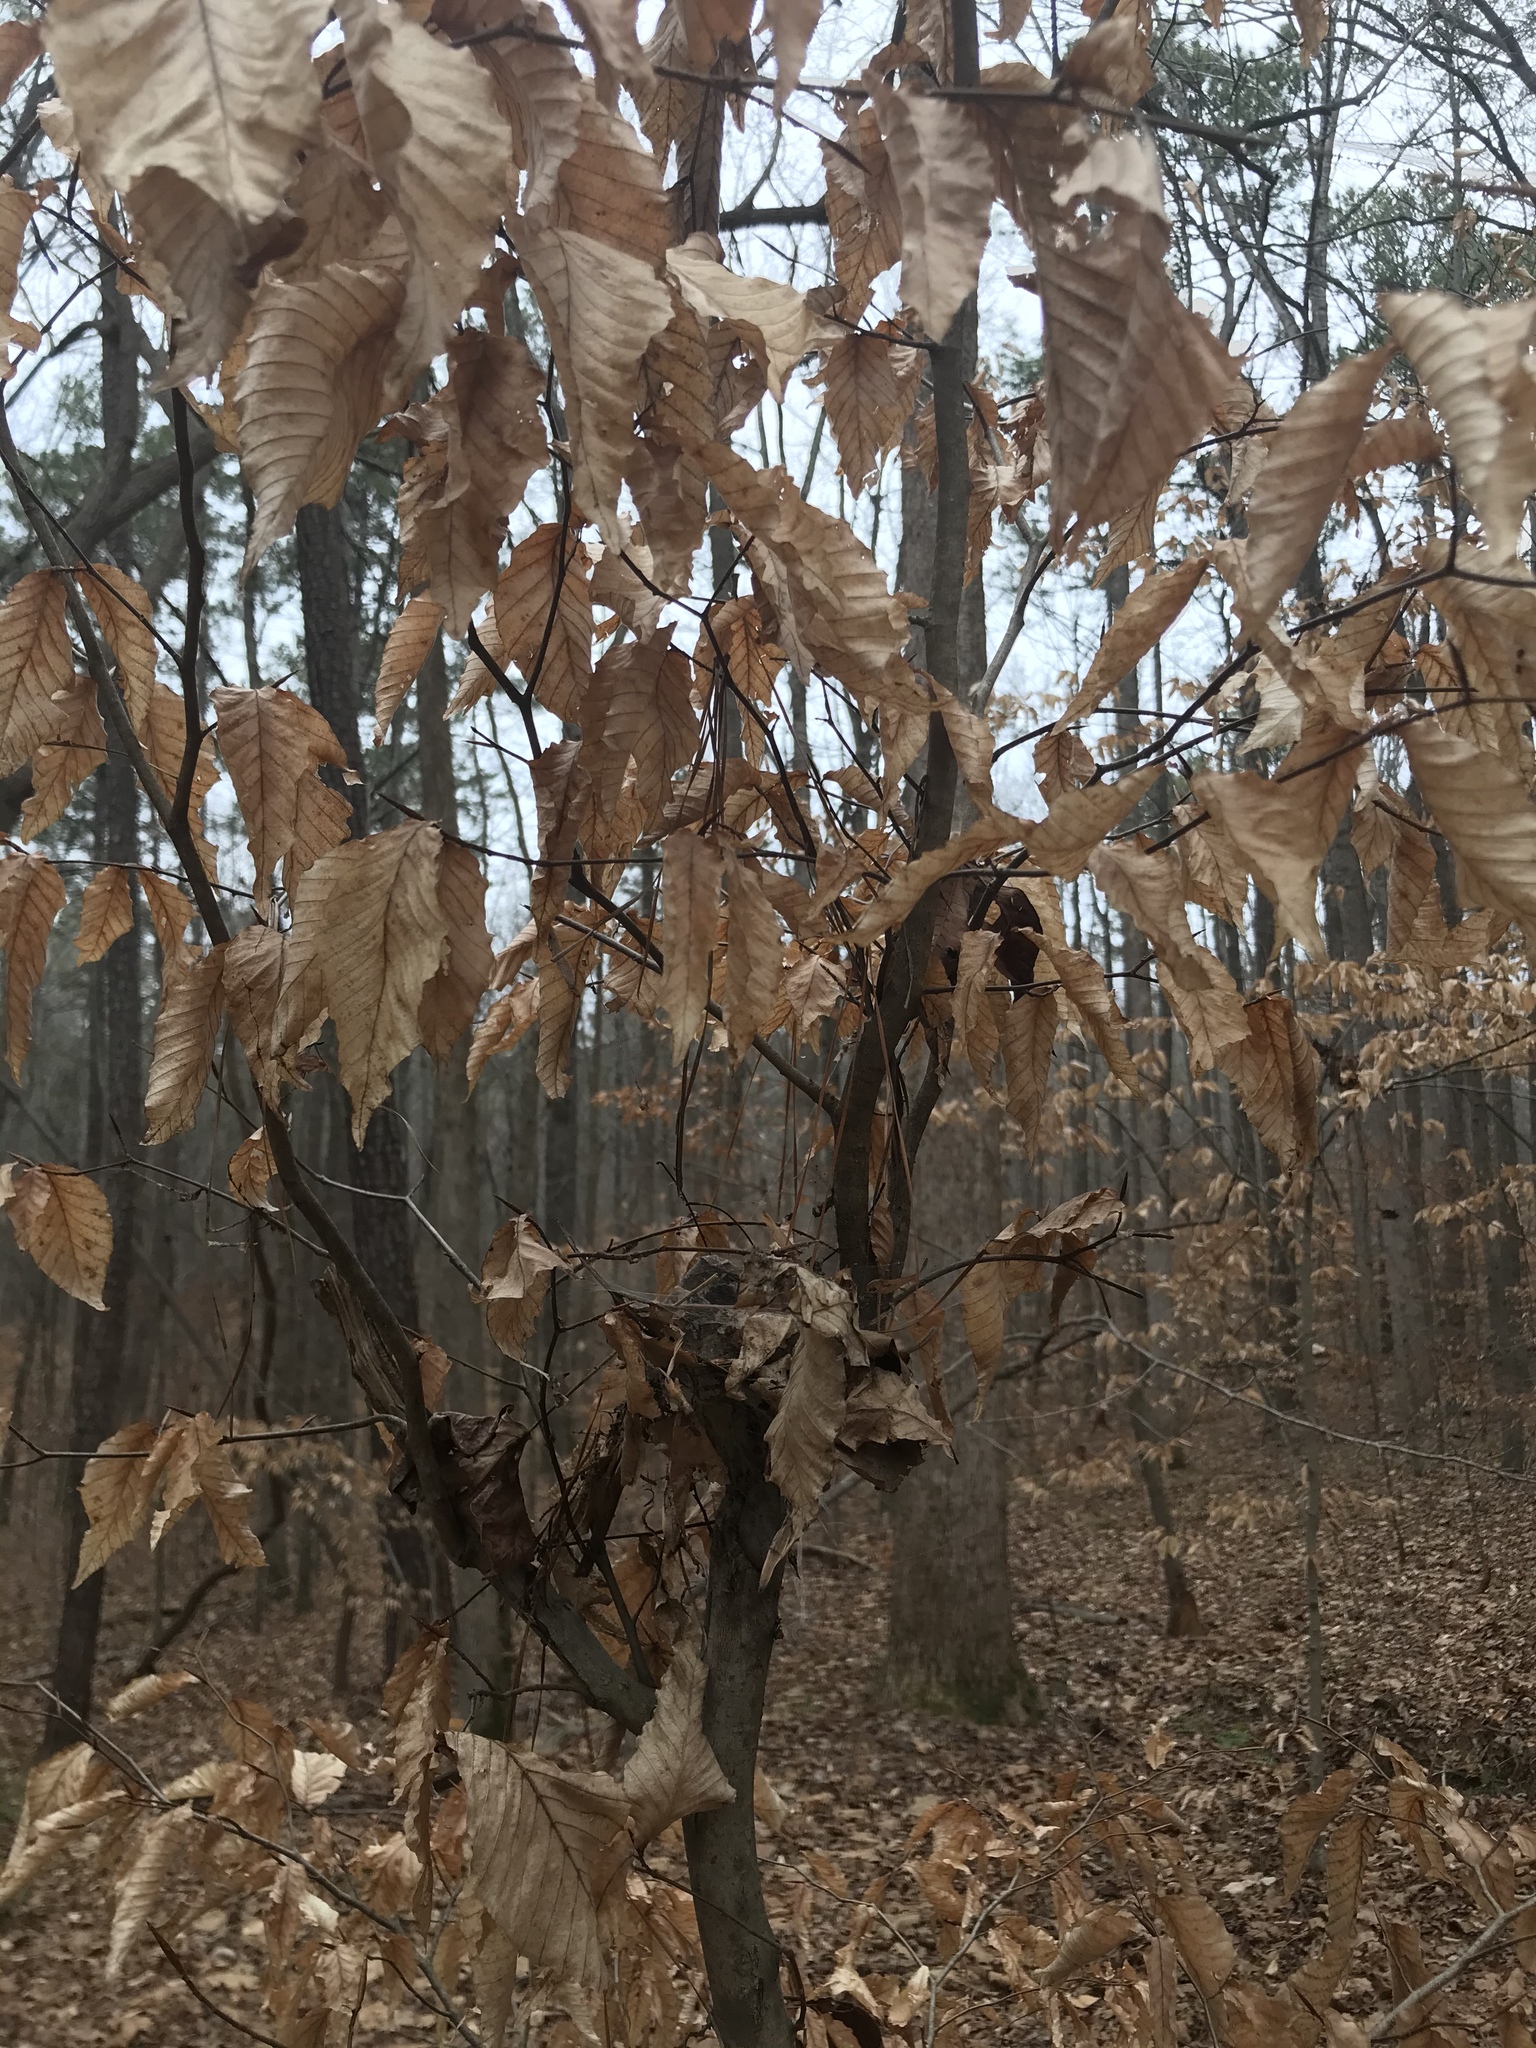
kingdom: Plantae
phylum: Tracheophyta
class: Magnoliopsida
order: Fagales
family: Fagaceae
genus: Fagus
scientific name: Fagus grandifolia
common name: American beech
